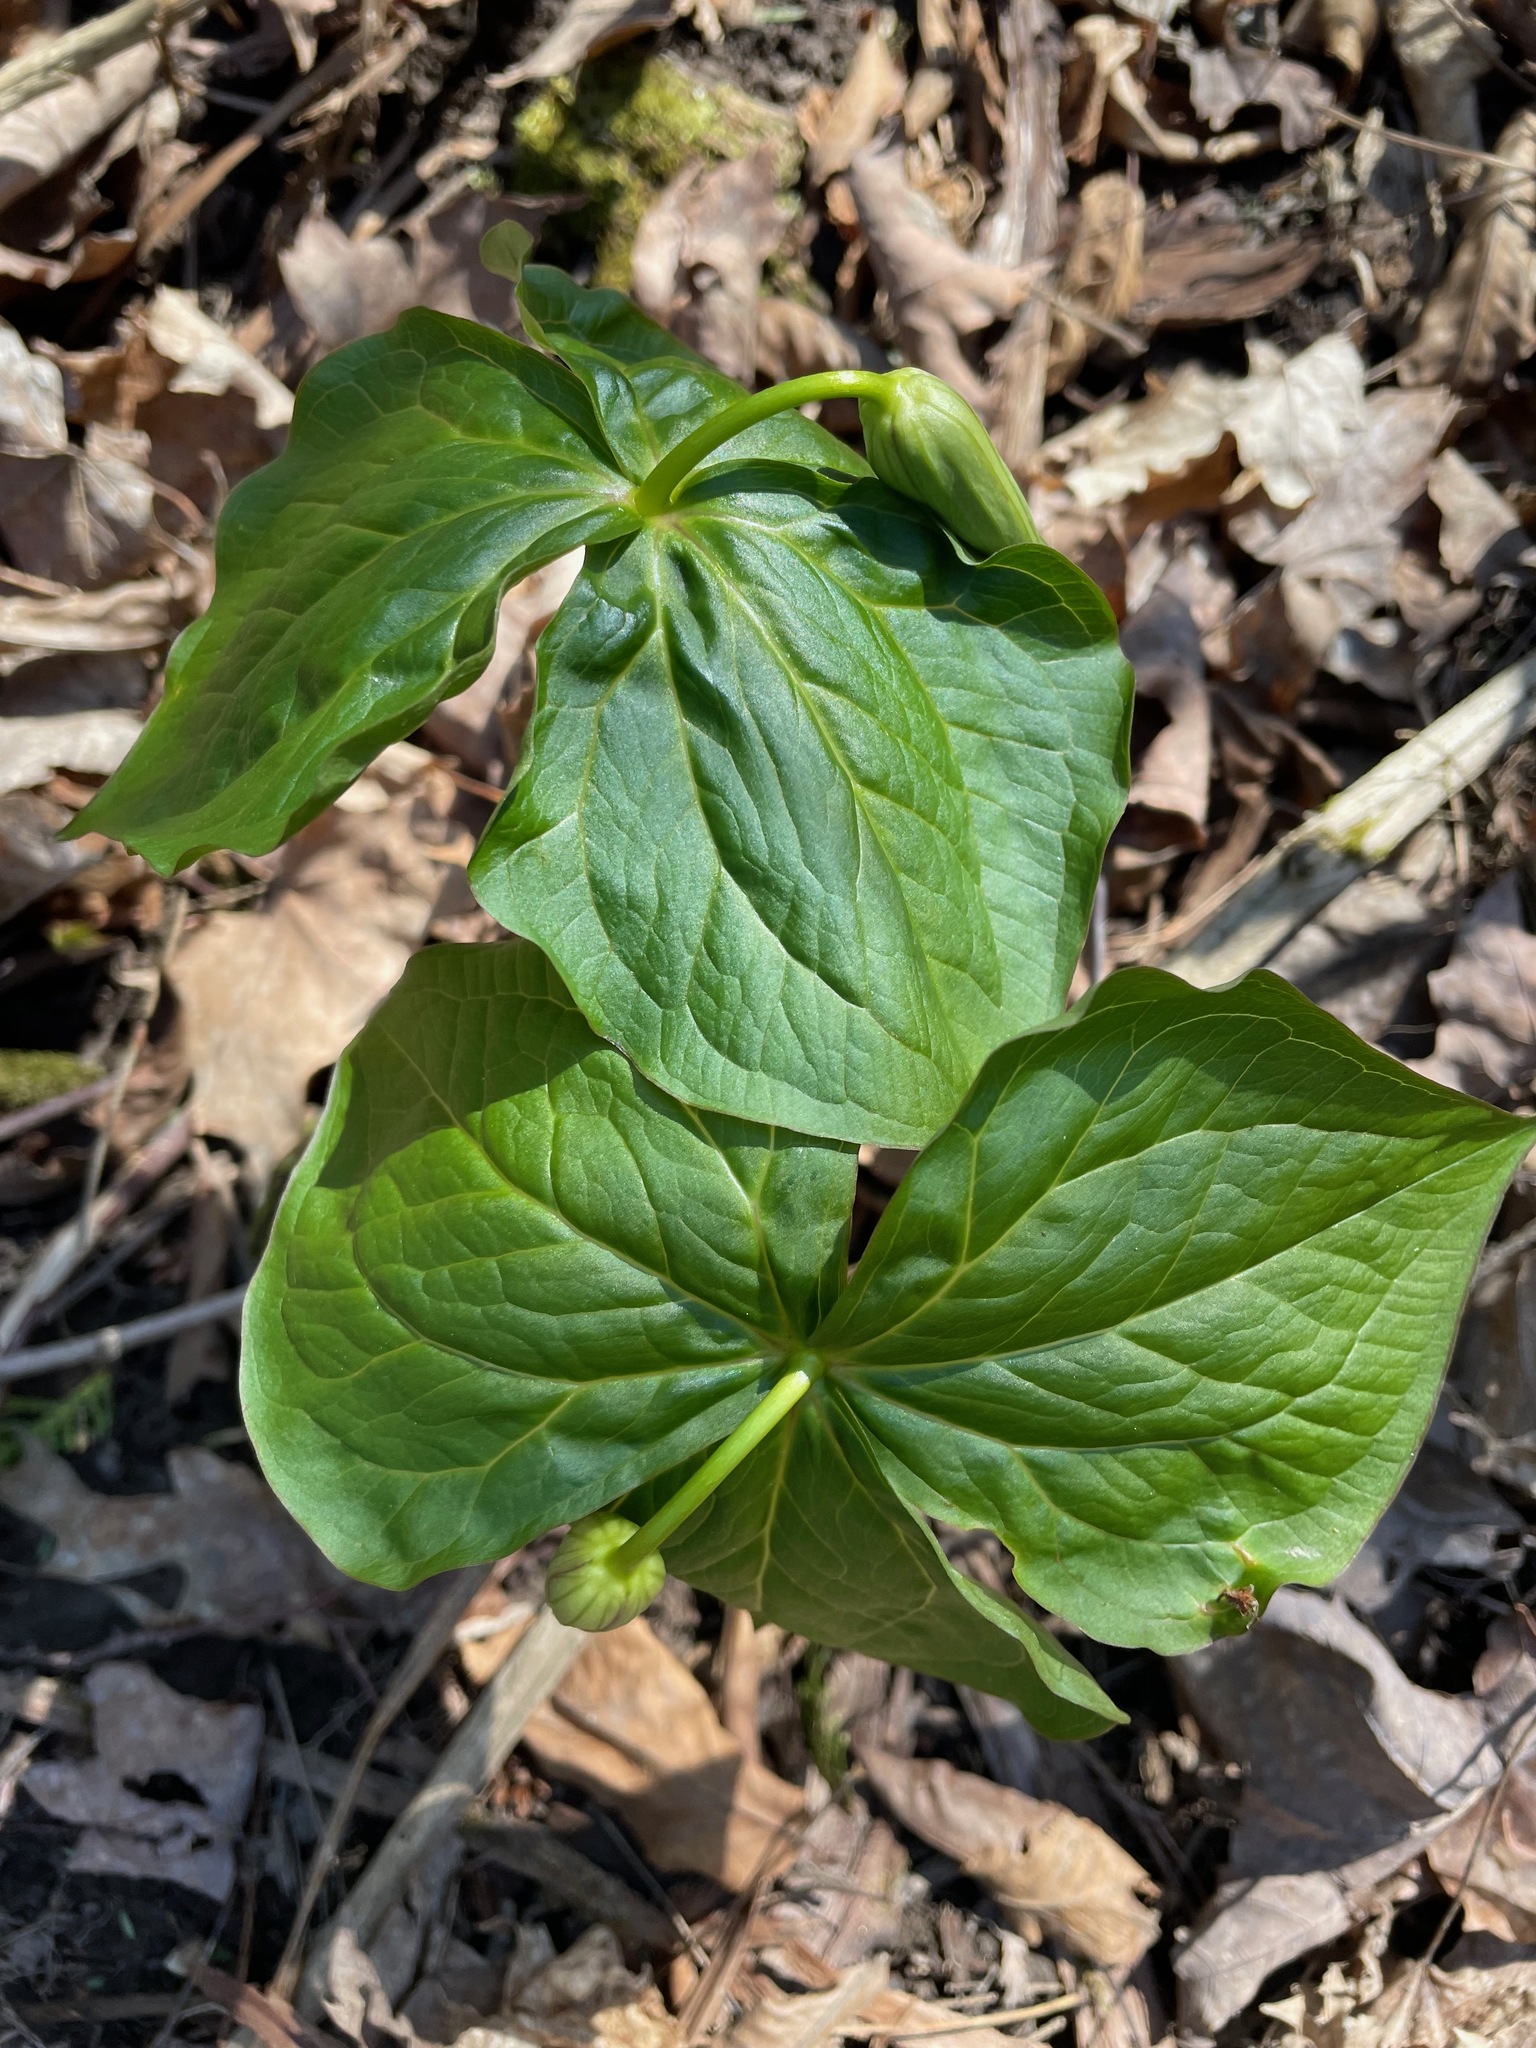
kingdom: Plantae
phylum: Tracheophyta
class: Liliopsida
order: Liliales
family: Melanthiaceae
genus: Trillium
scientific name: Trillium erectum
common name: Purple trillium
